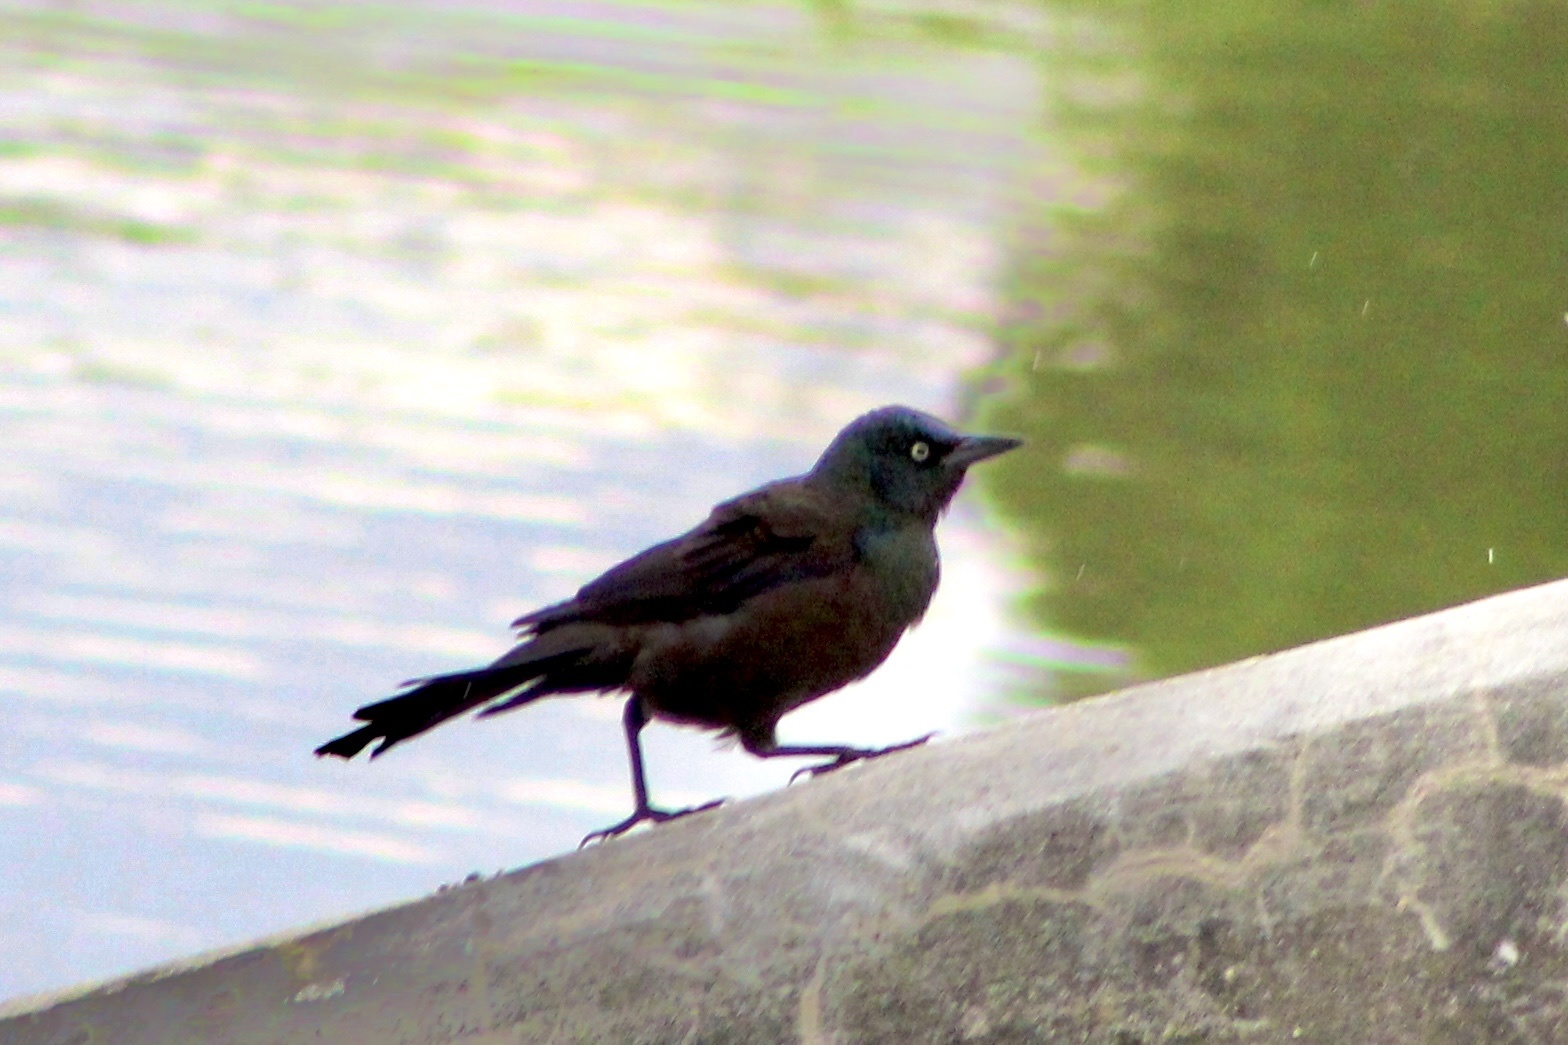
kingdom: Animalia
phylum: Chordata
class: Aves
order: Passeriformes
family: Icteridae
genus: Quiscalus
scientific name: Quiscalus quiscula
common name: Common grackle
